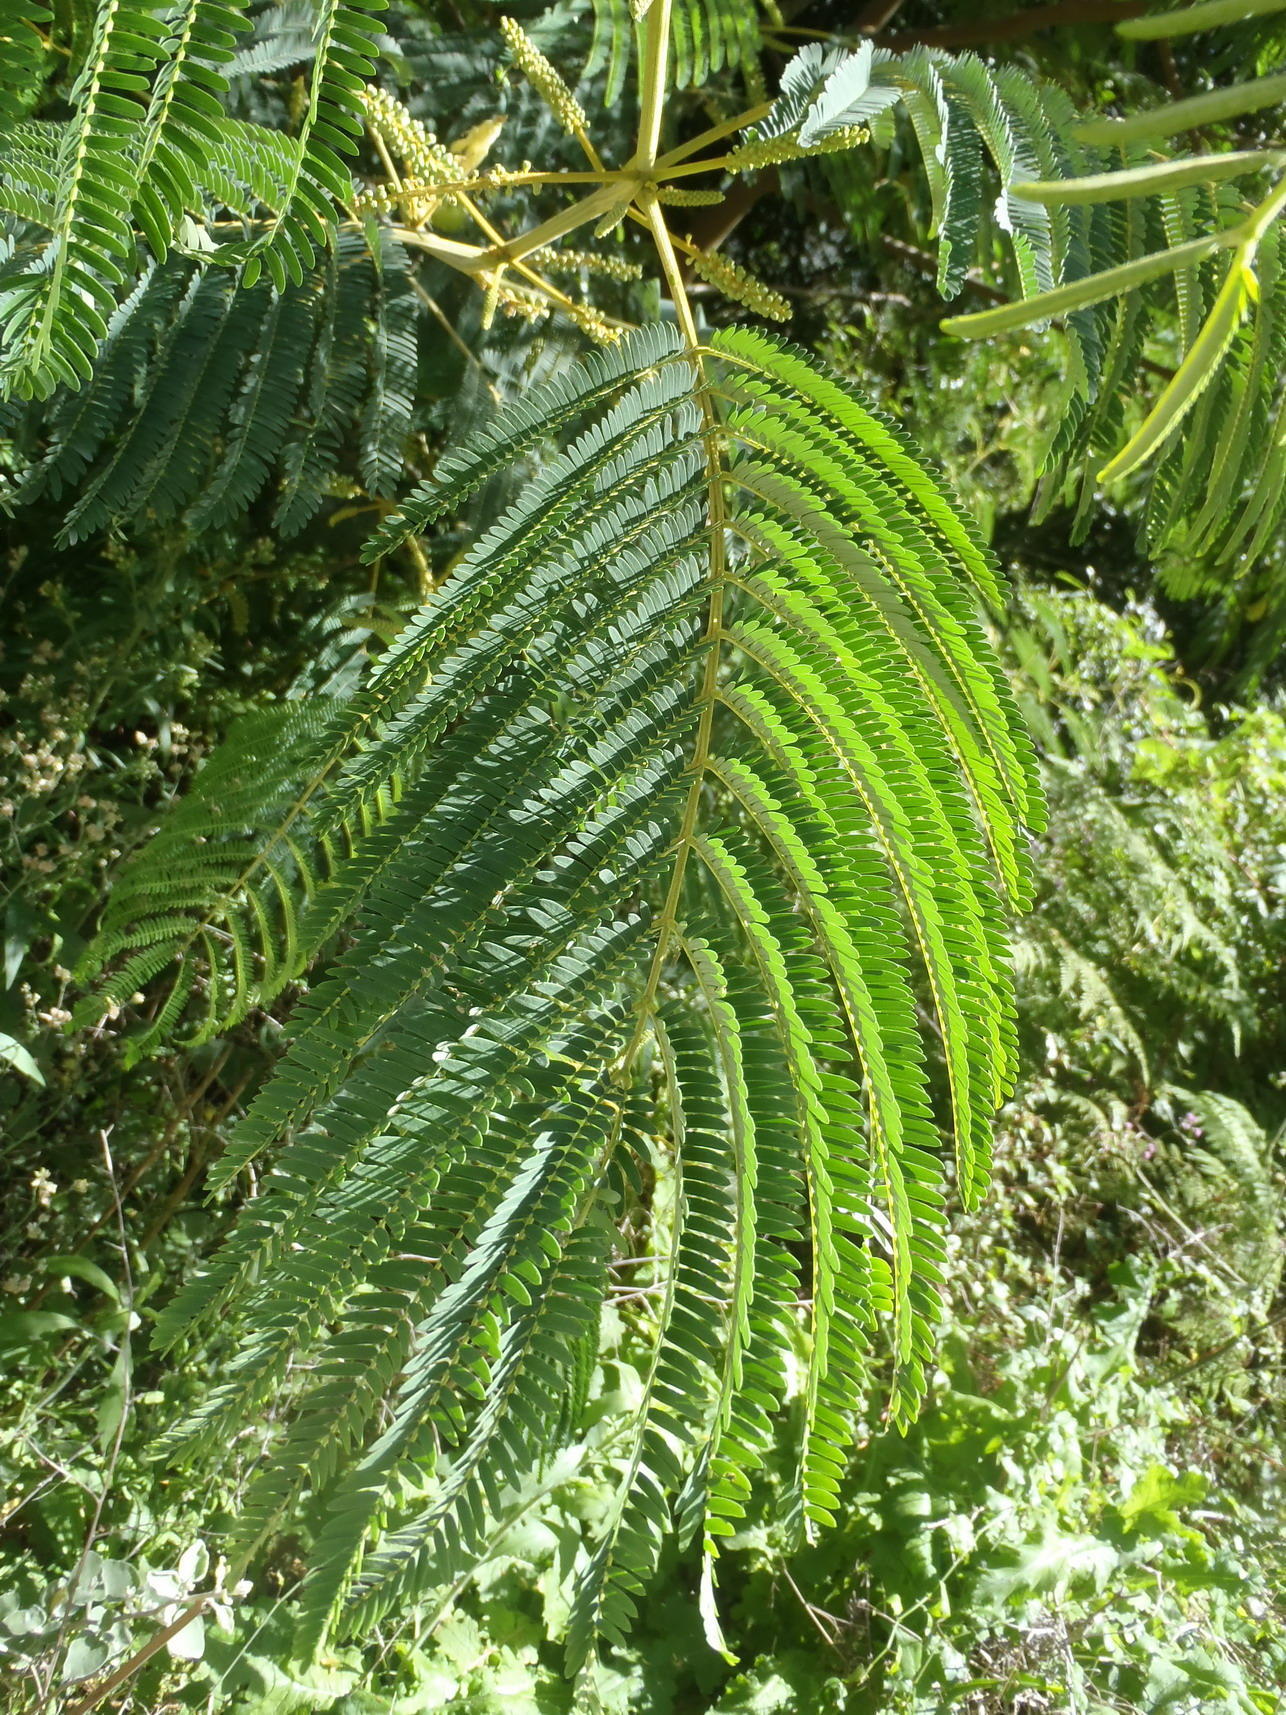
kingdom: Plantae
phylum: Tracheophyta
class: Magnoliopsida
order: Fabales
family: Fabaceae
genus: Paraserianthes
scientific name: Paraserianthes lophantha
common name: Plume albizia
